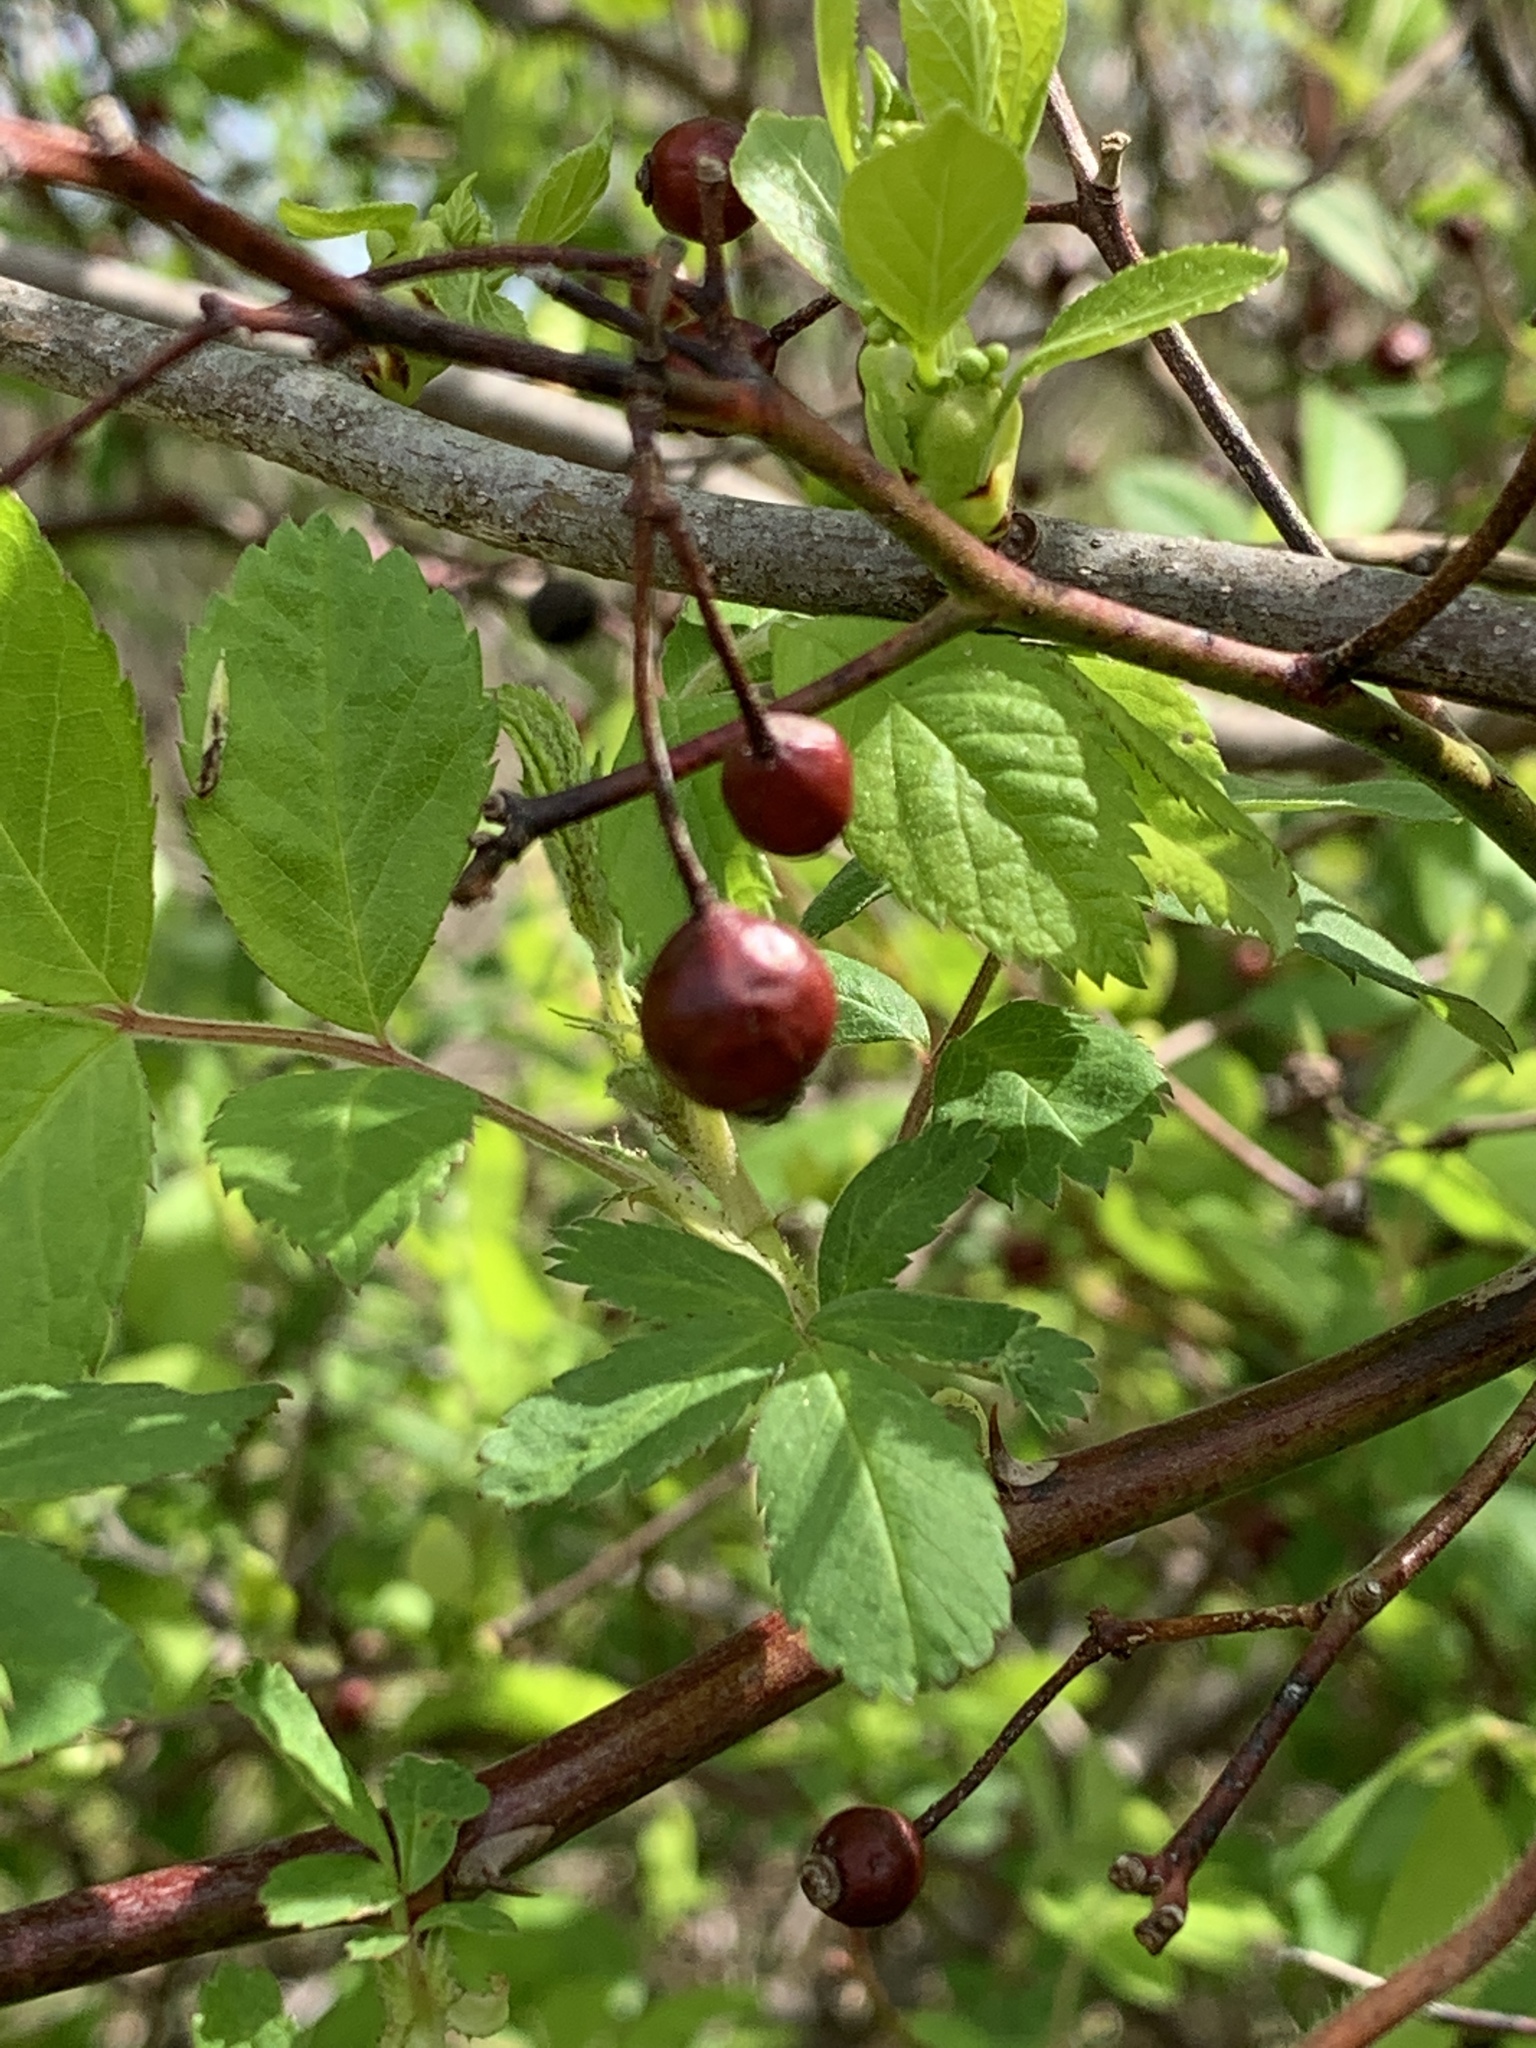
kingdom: Plantae
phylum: Tracheophyta
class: Magnoliopsida
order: Rosales
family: Rosaceae
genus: Rosa
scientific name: Rosa multiflora
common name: Multiflora rose
